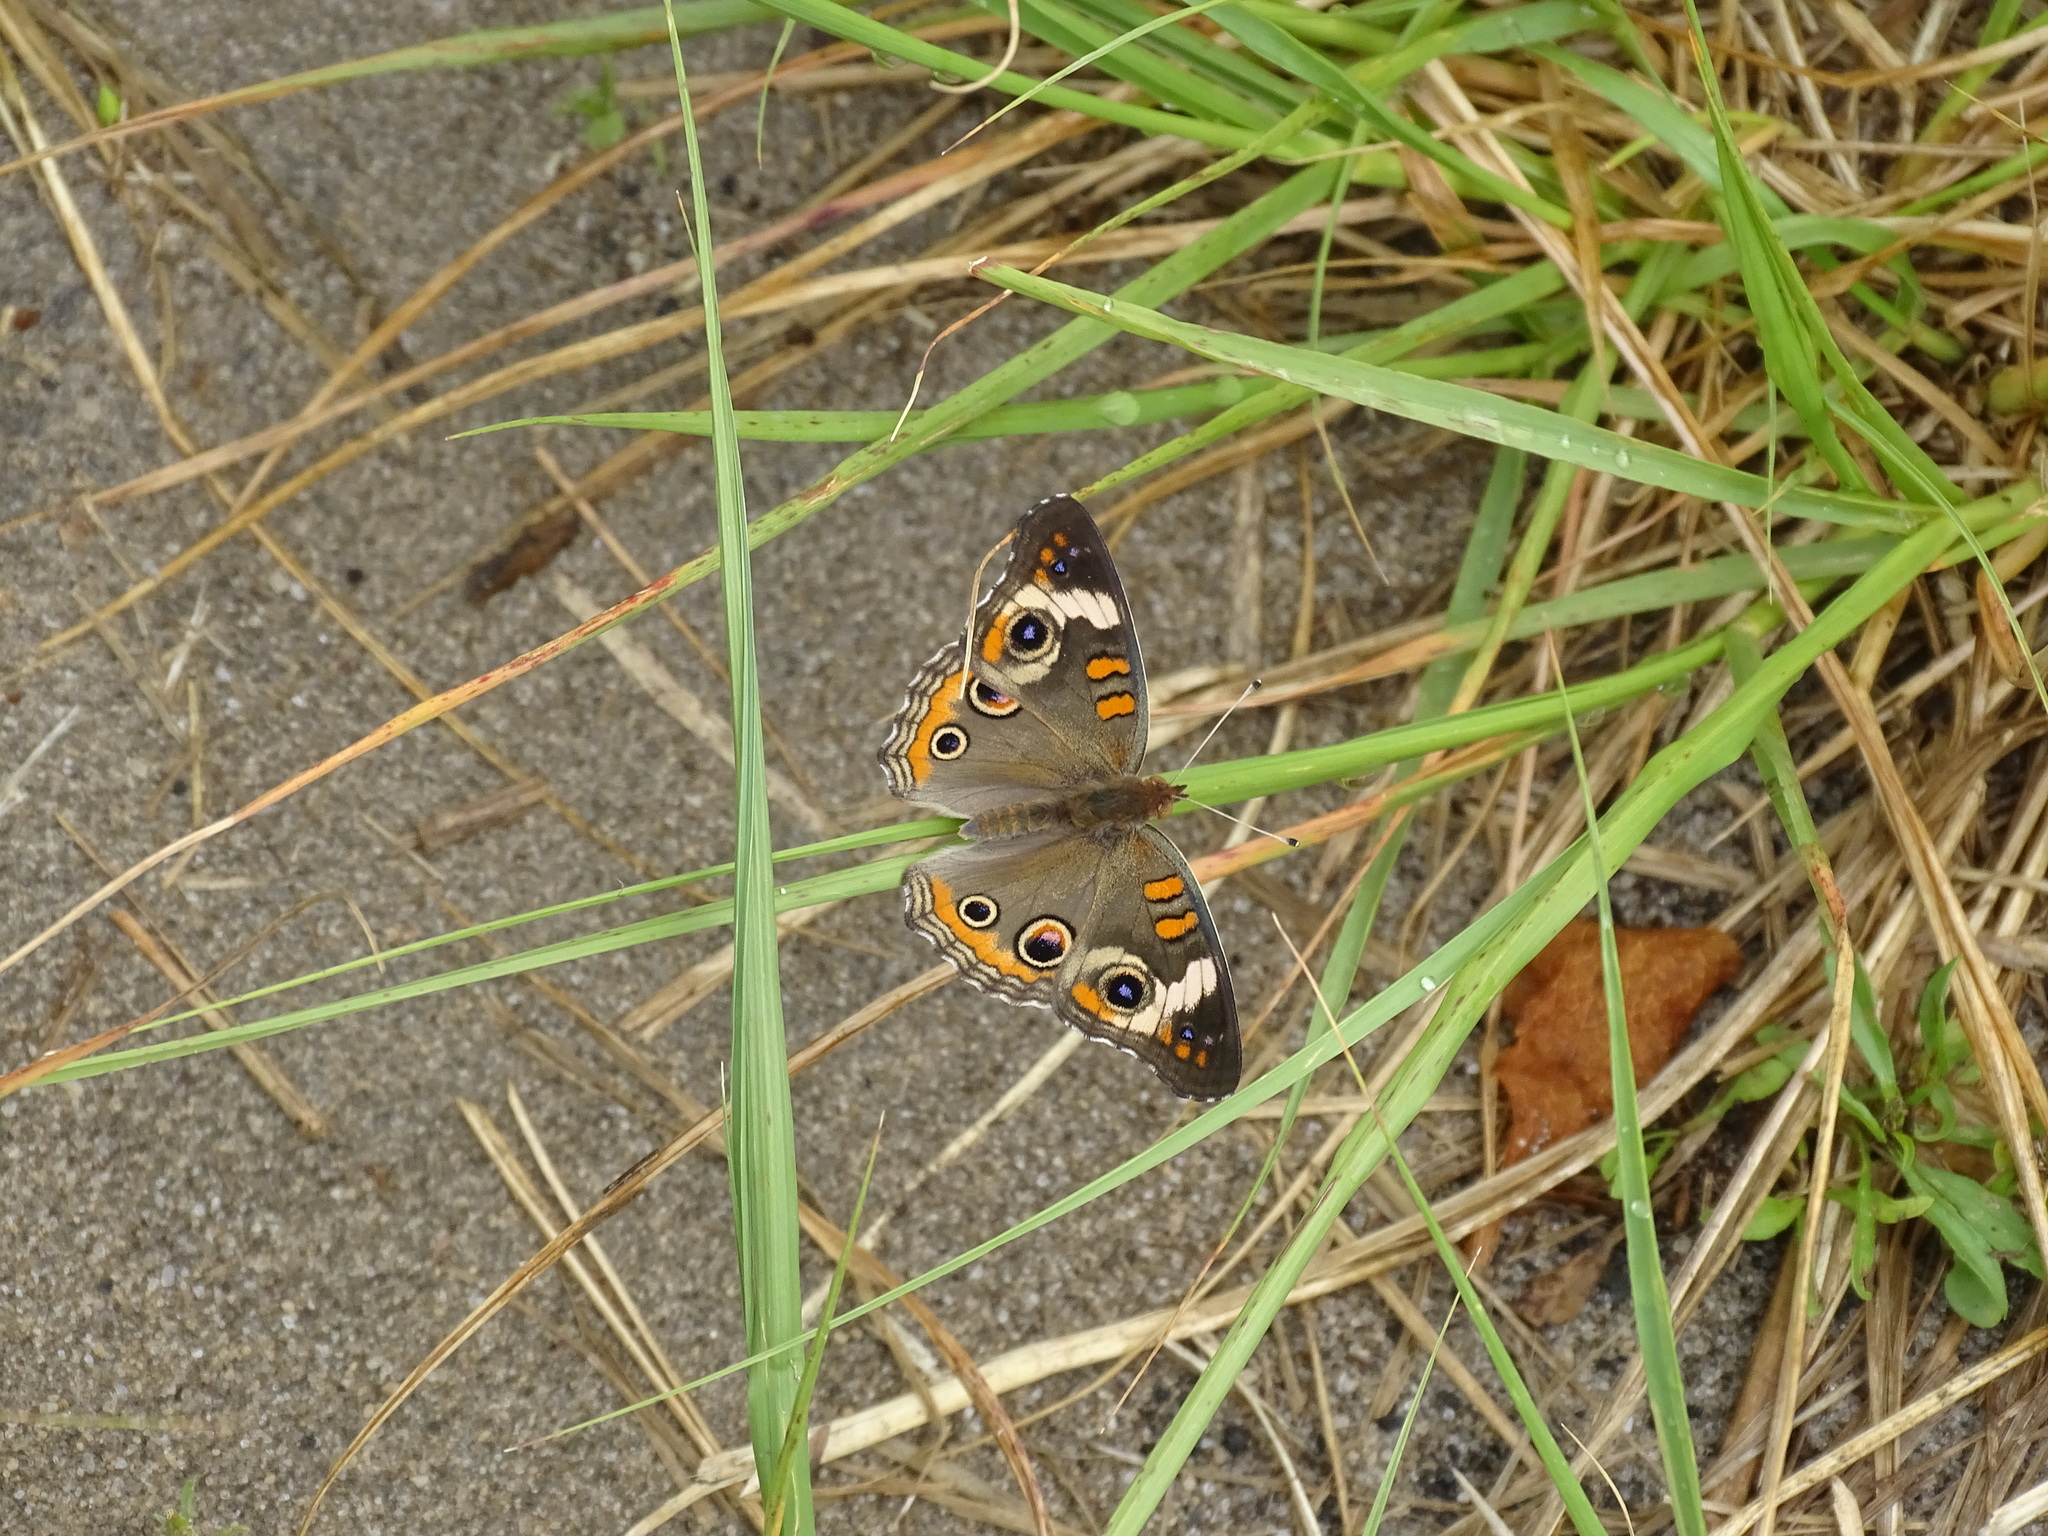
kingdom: Animalia
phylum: Arthropoda
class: Insecta
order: Lepidoptera
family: Nymphalidae
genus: Junonia
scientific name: Junonia coenia
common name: Common buckeye
